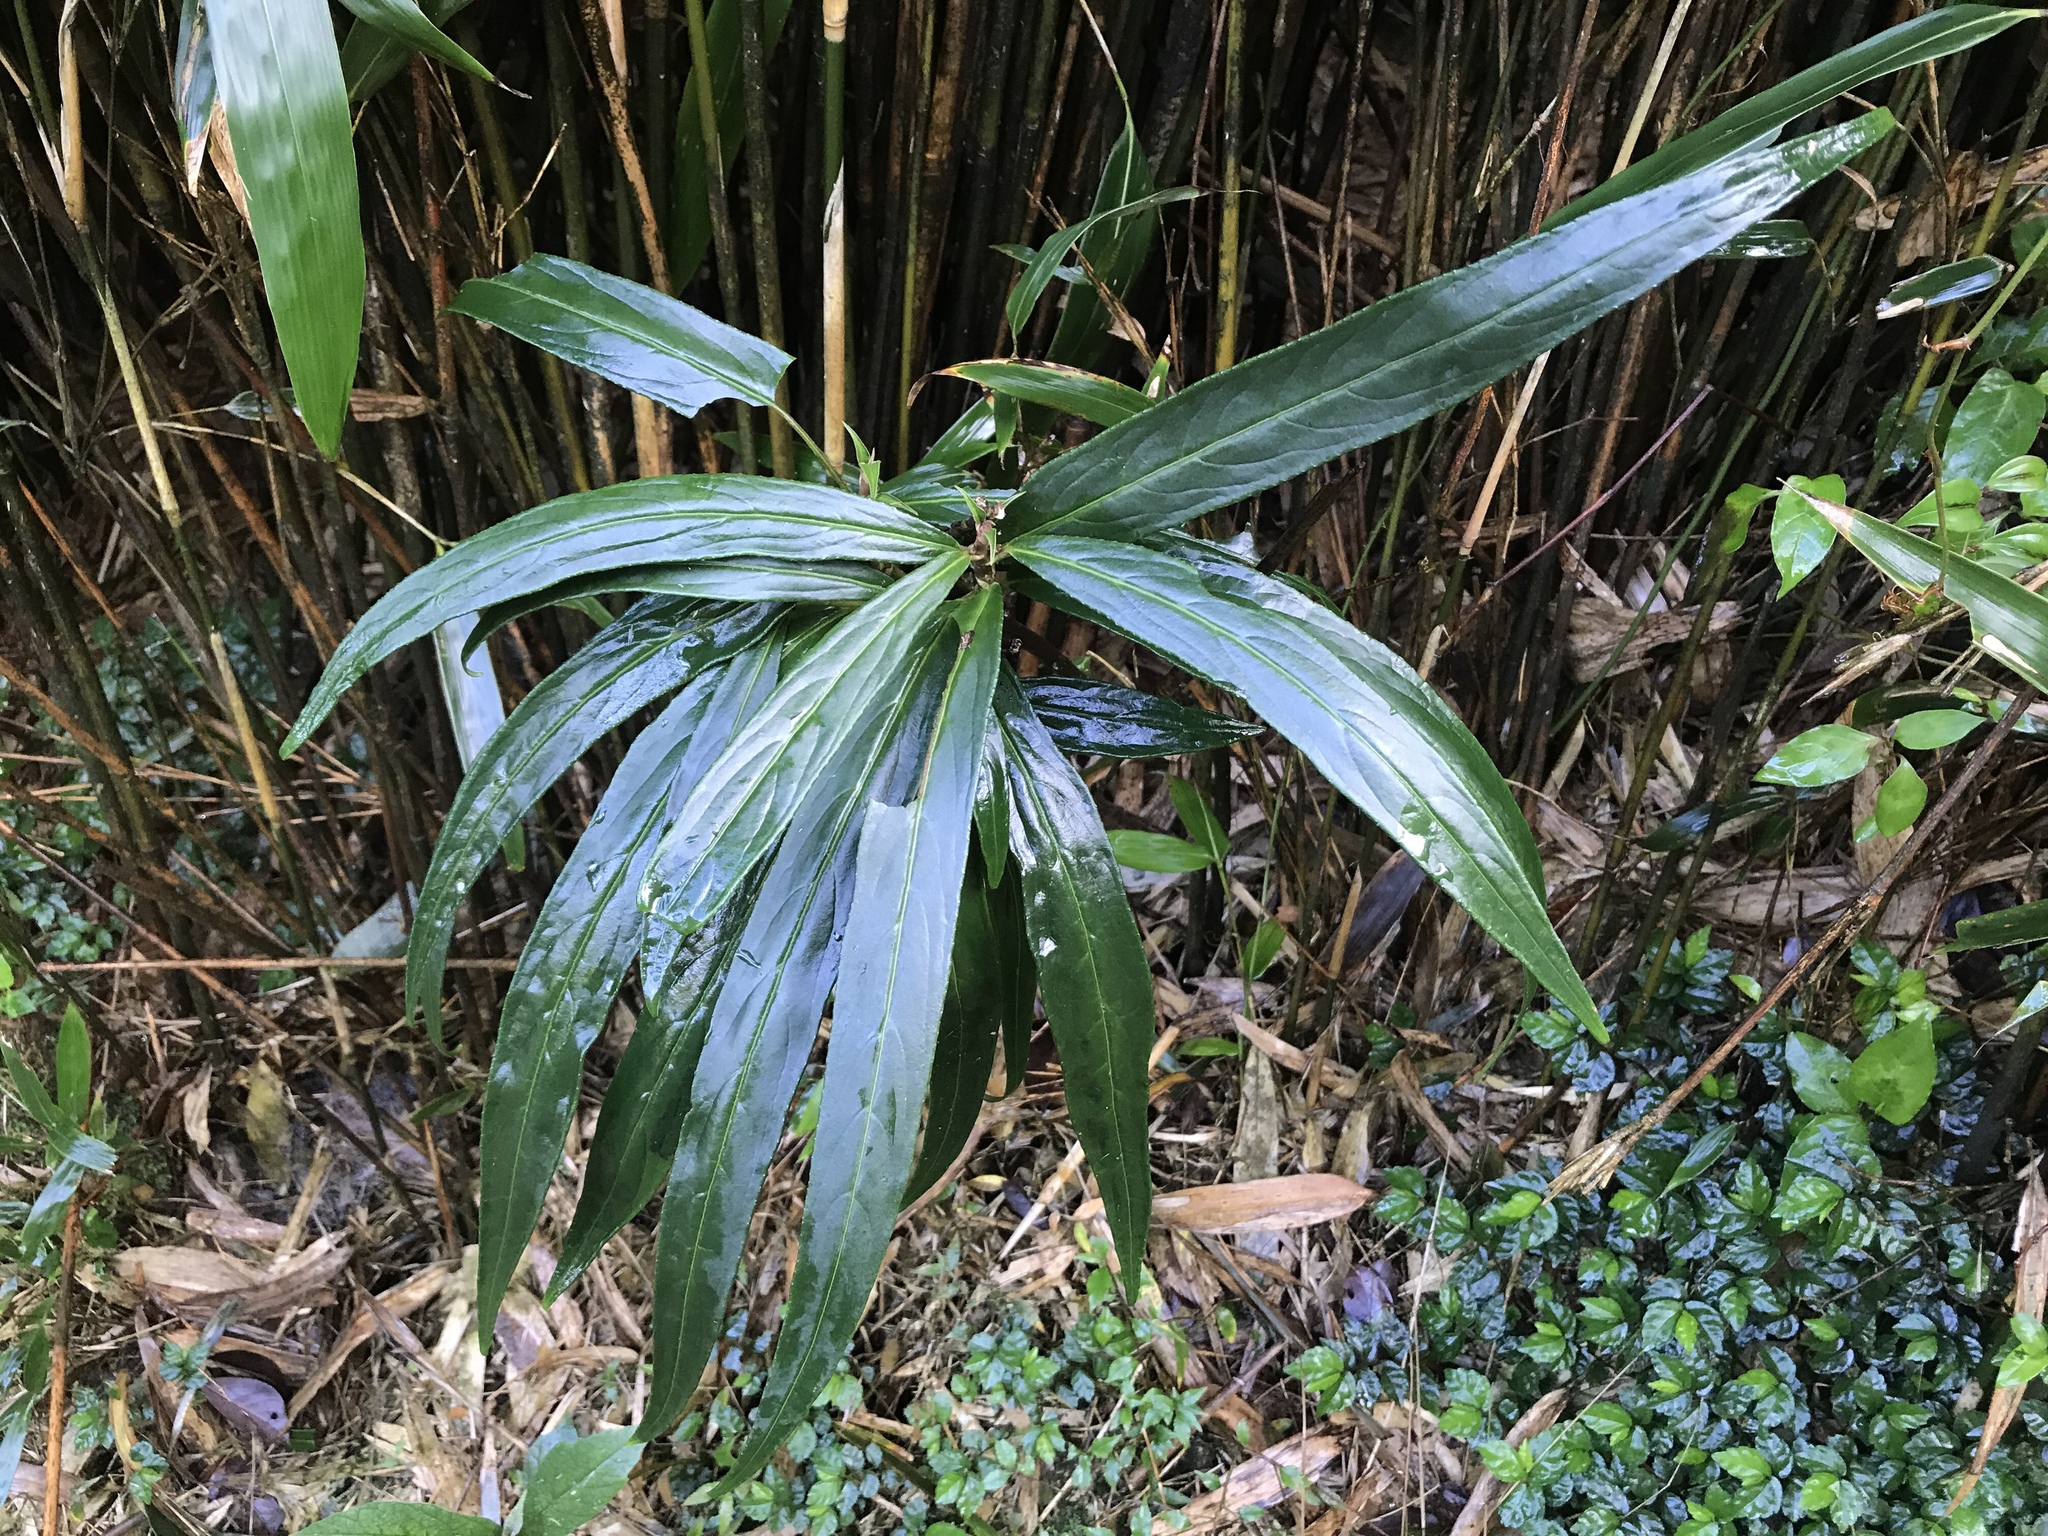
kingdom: Plantae
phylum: Tracheophyta
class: Magnoliopsida
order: Ericales
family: Primulaceae
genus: Ardisia
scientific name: Ardisia crispa
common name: Japanese-holly
